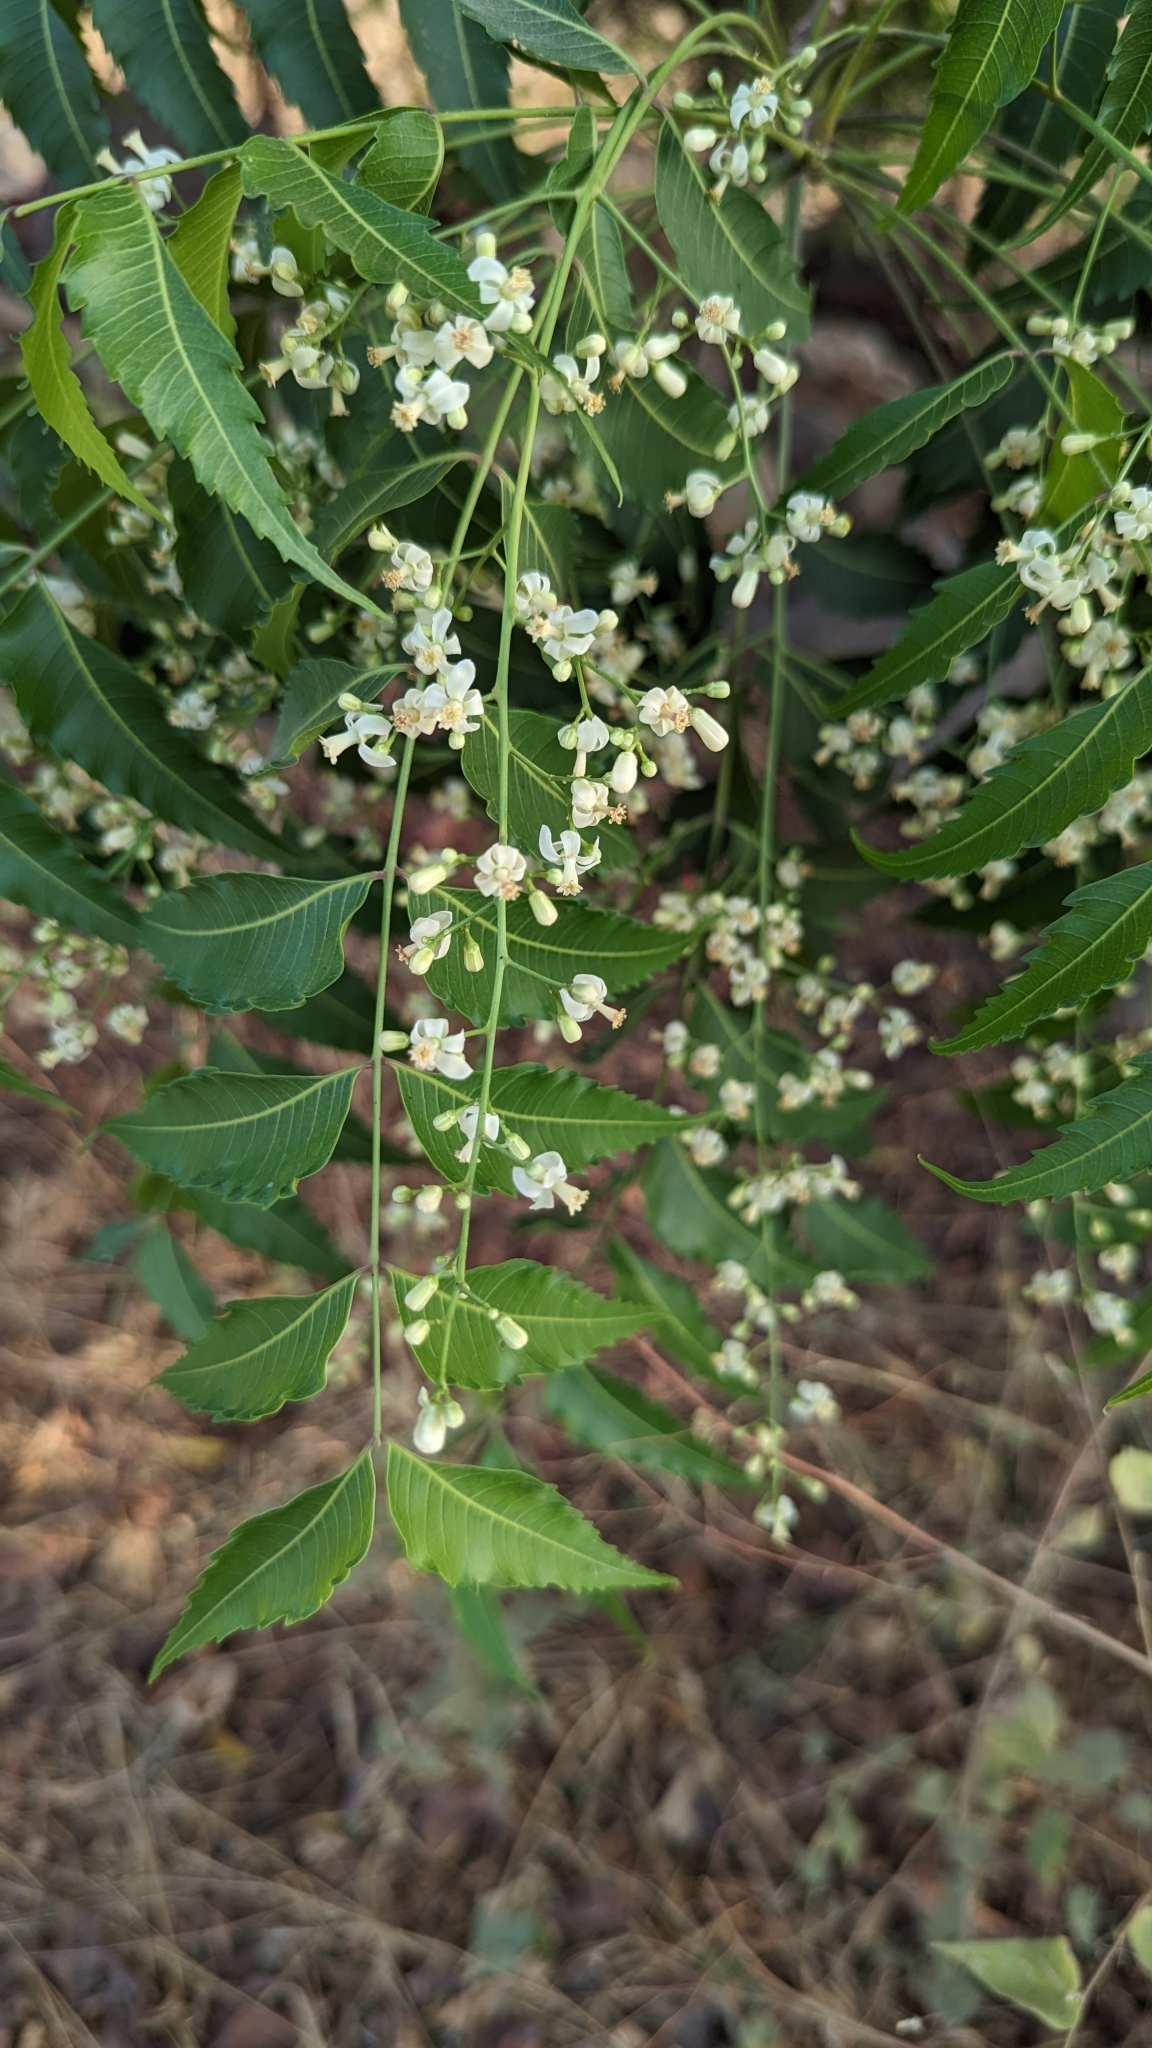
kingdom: Plantae
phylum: Tracheophyta
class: Magnoliopsida
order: Sapindales
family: Meliaceae
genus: Azadirachta
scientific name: Azadirachta indica
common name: Neem
